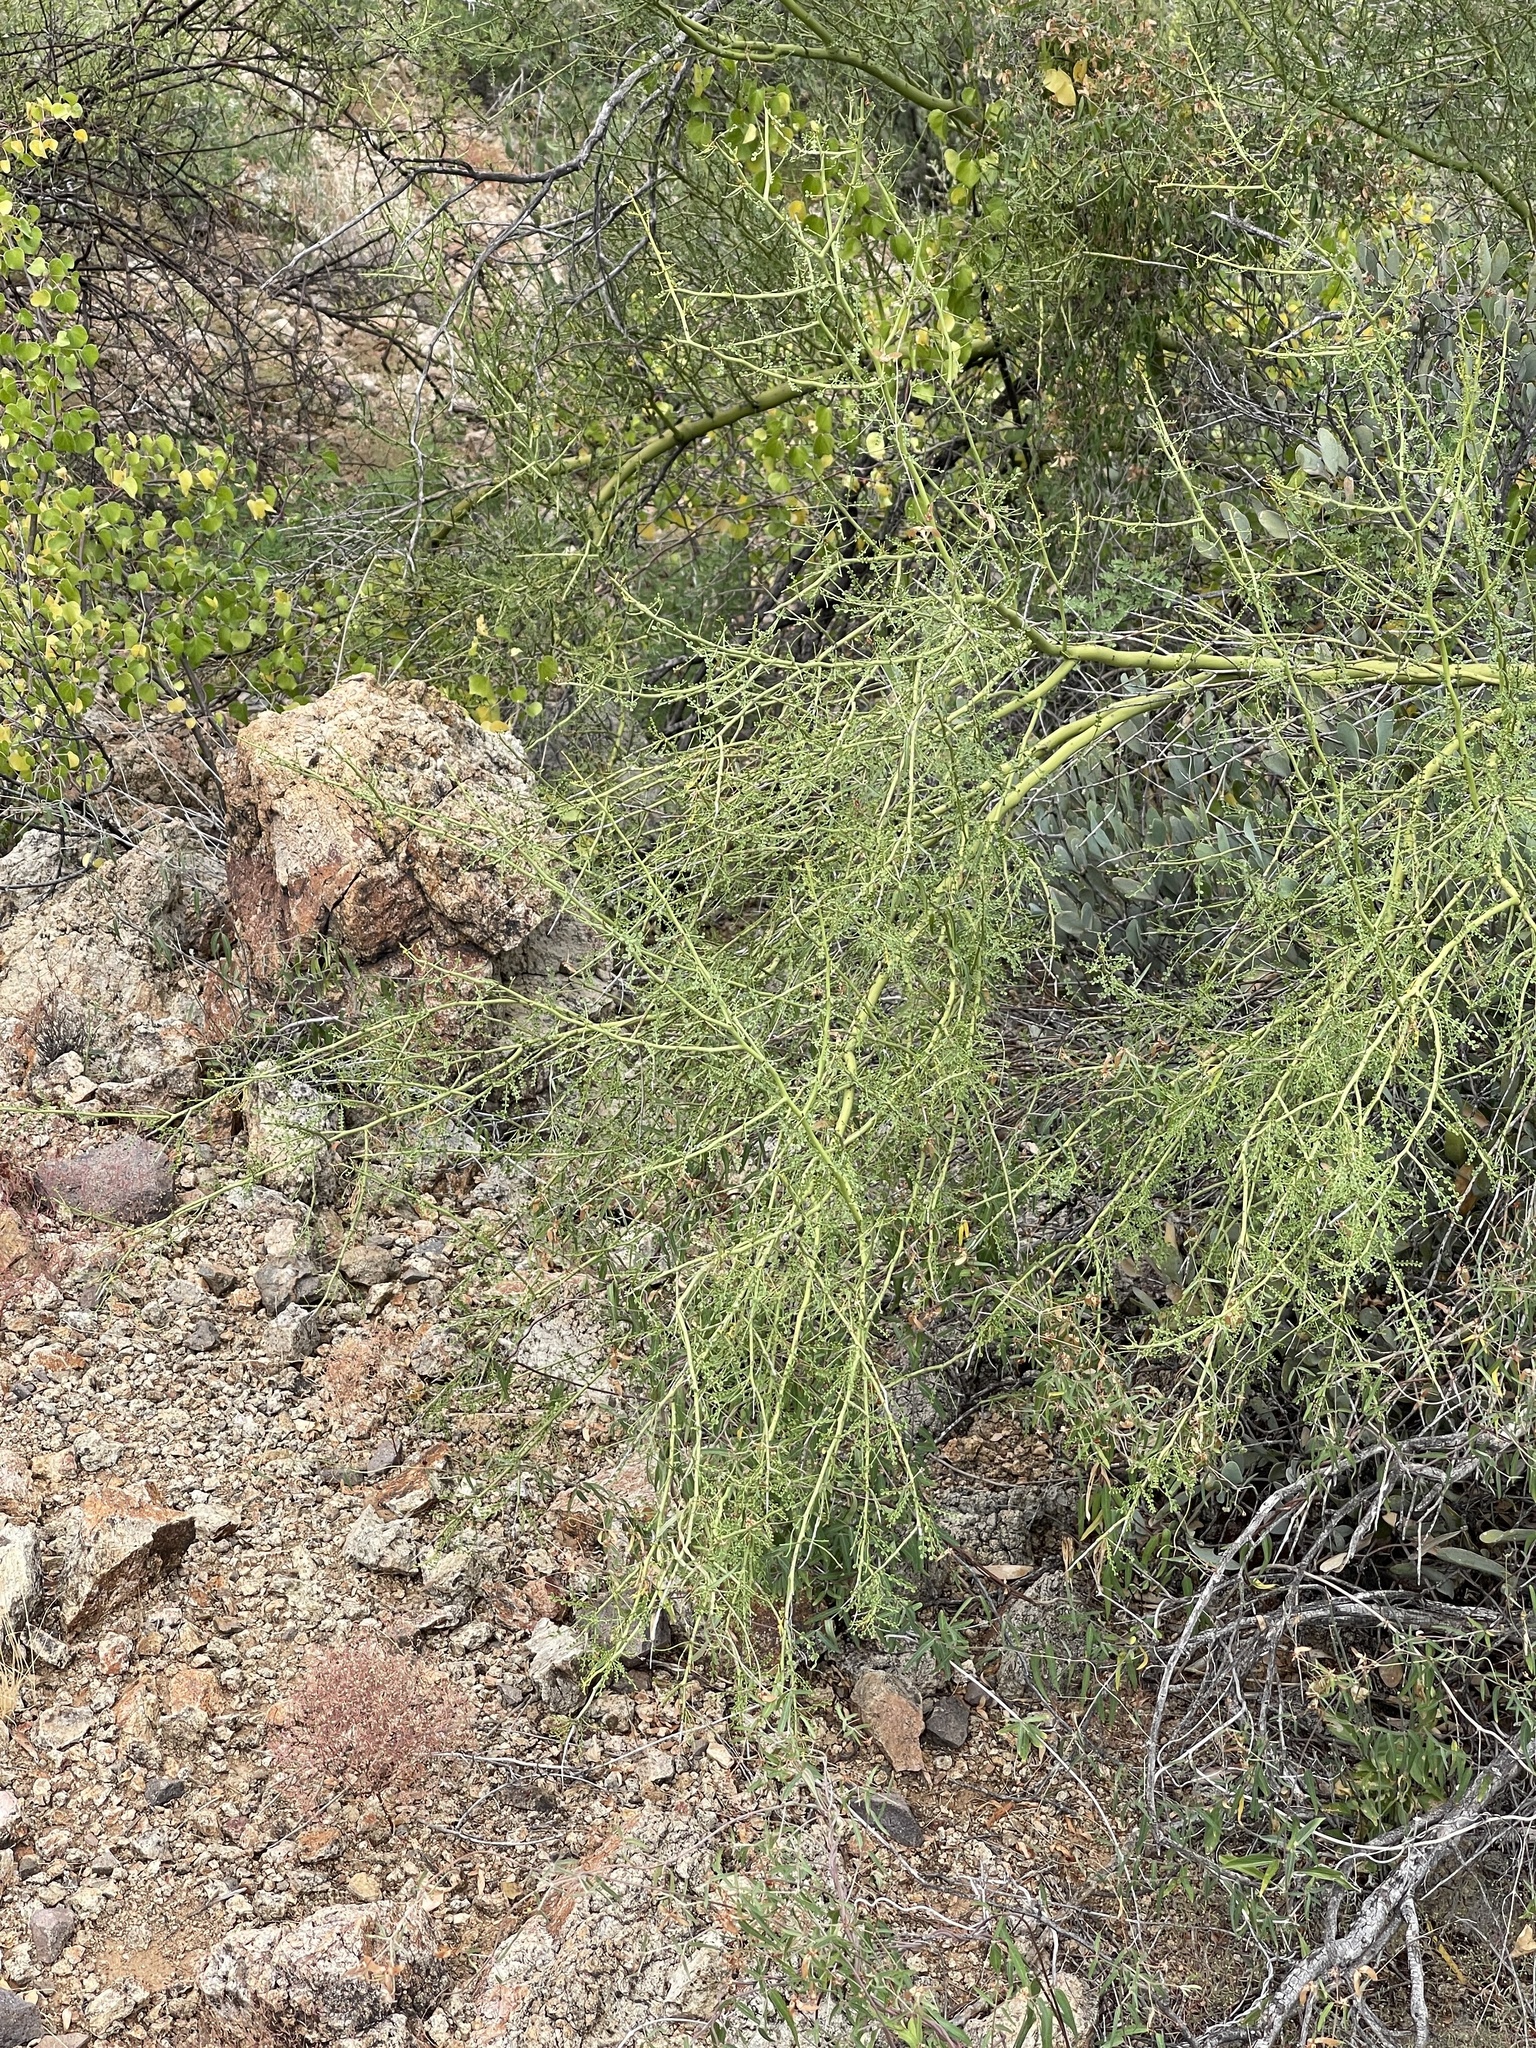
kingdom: Plantae
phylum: Tracheophyta
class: Magnoliopsida
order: Fabales
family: Fabaceae
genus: Parkinsonia
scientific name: Parkinsonia microphylla
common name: Yellow paloverde
